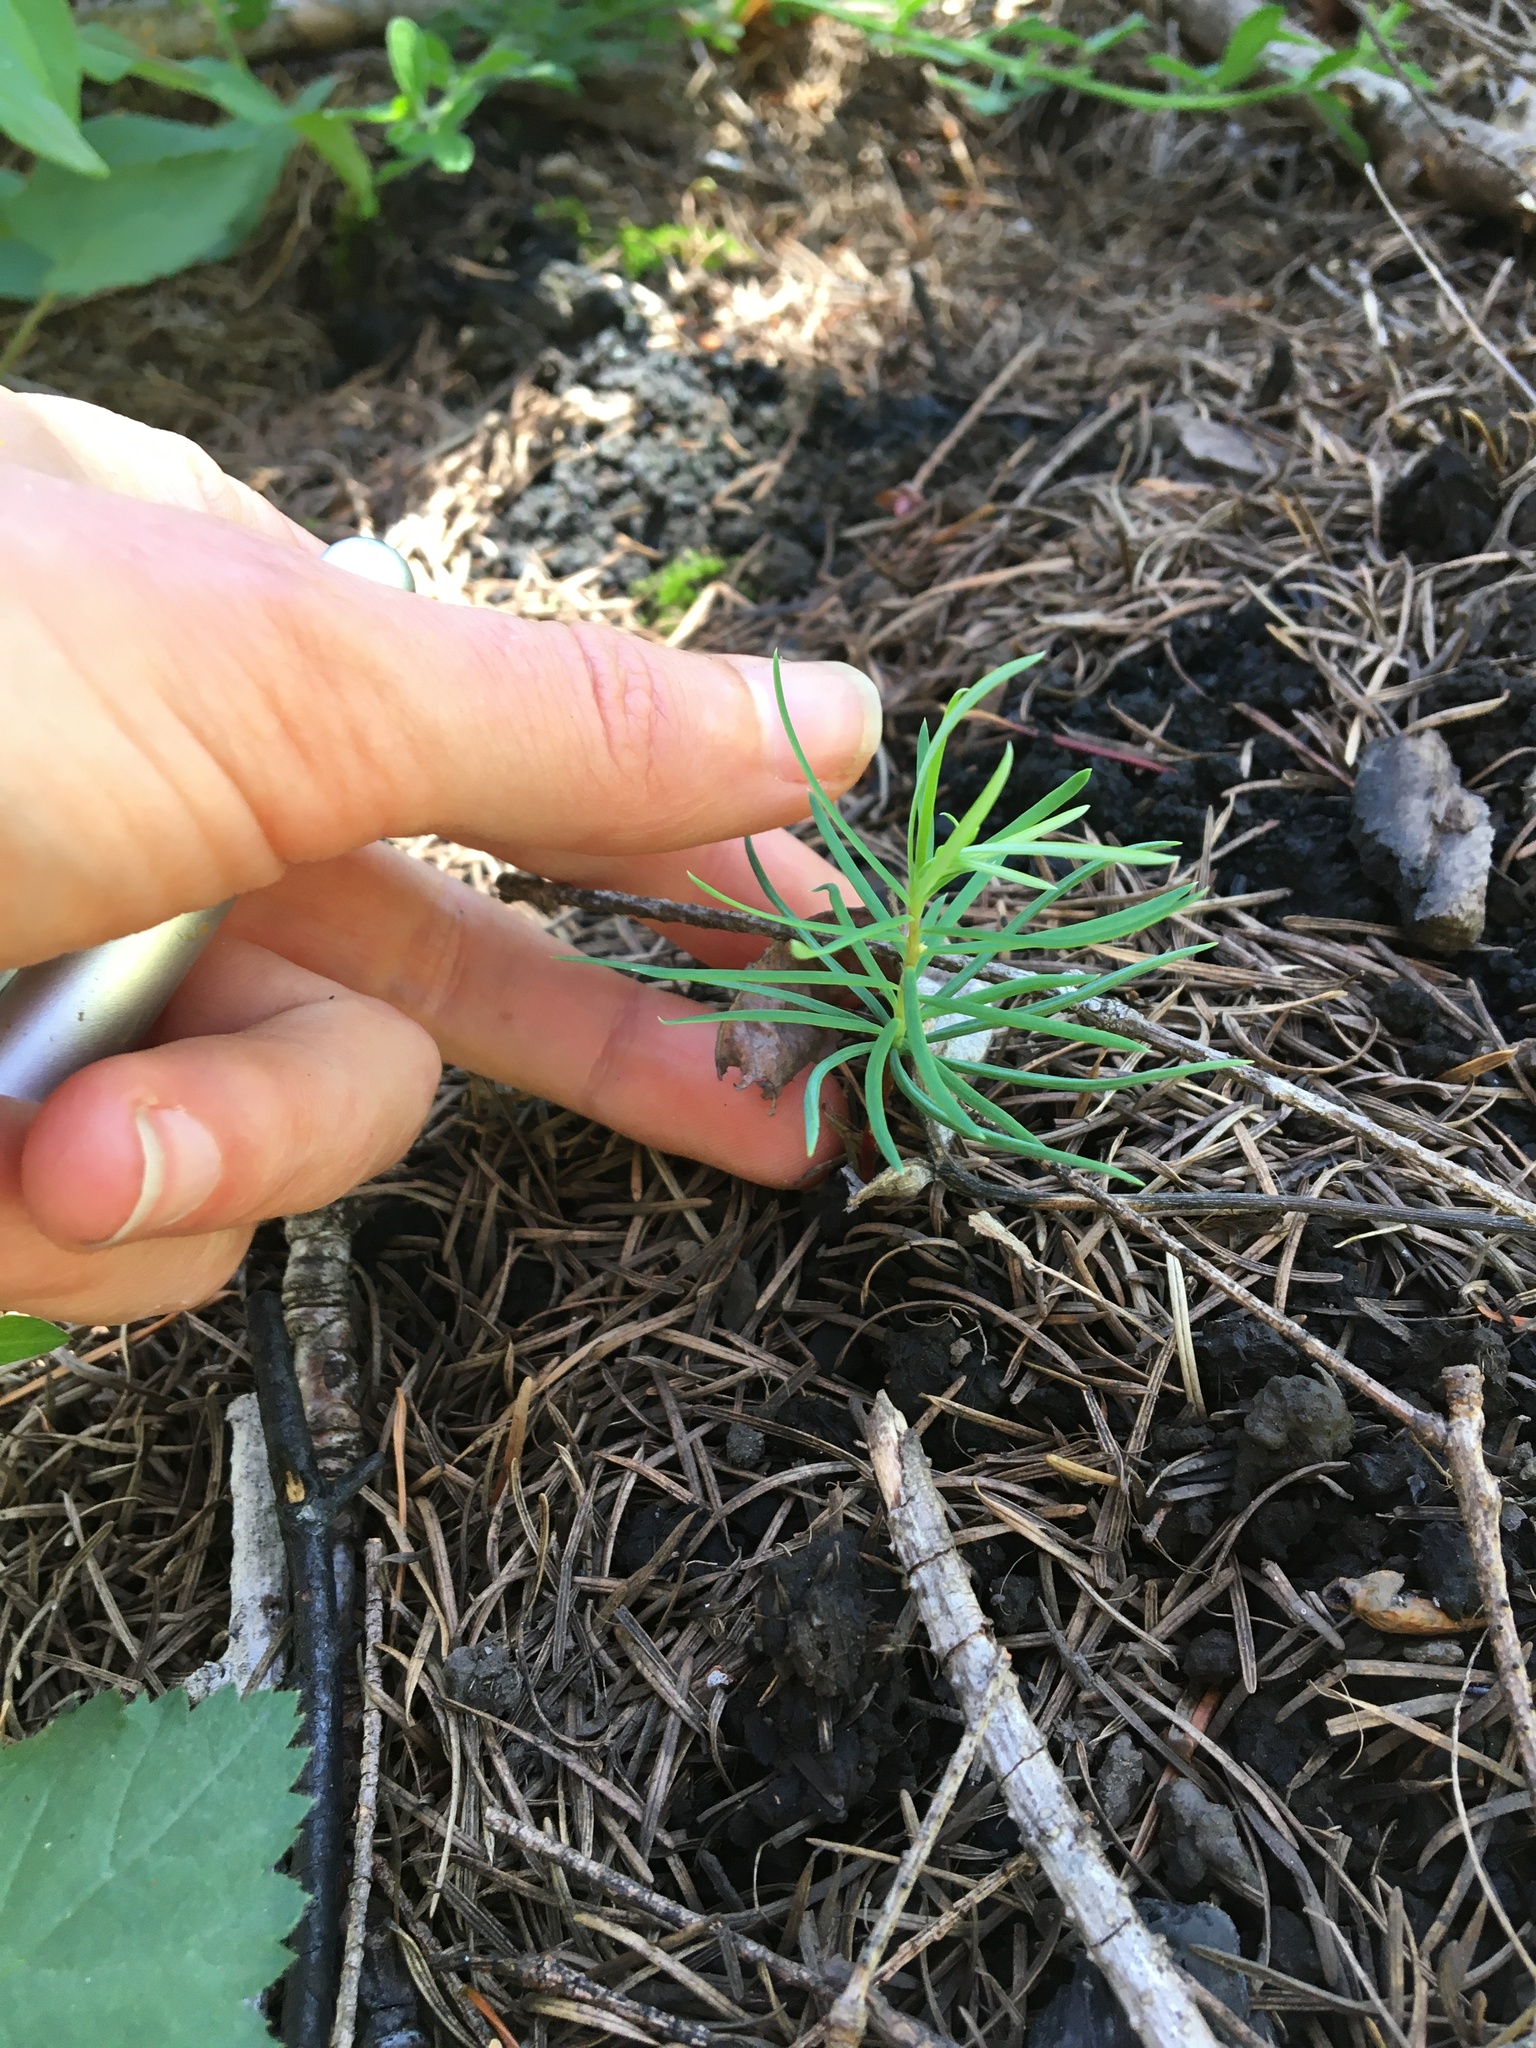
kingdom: Plantae
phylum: Tracheophyta
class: Pinopsida
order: Pinales
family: Pinaceae
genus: Pseudotsuga
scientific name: Pseudotsuga menziesii
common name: Douglas fir
